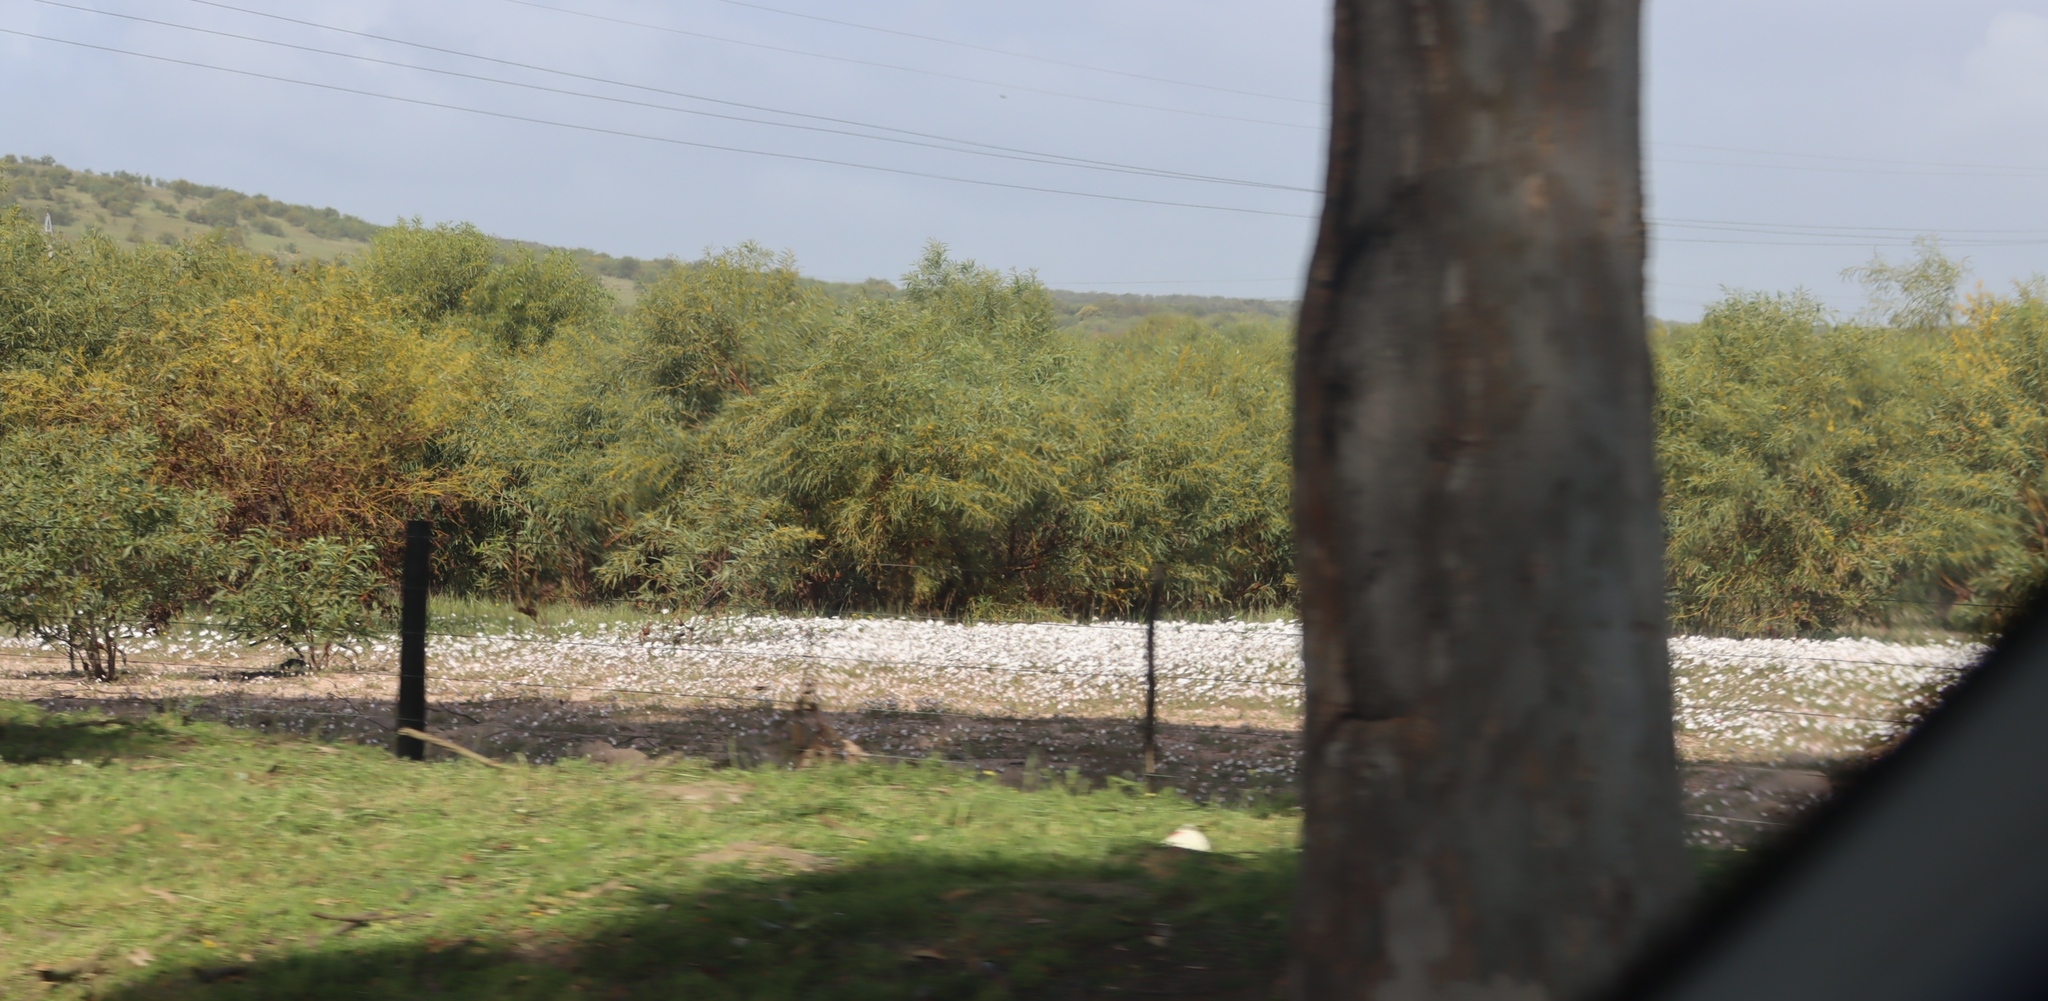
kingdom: Plantae
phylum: Tracheophyta
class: Magnoliopsida
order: Fabales
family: Fabaceae
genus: Acacia
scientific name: Acacia saligna
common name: Orange wattle
